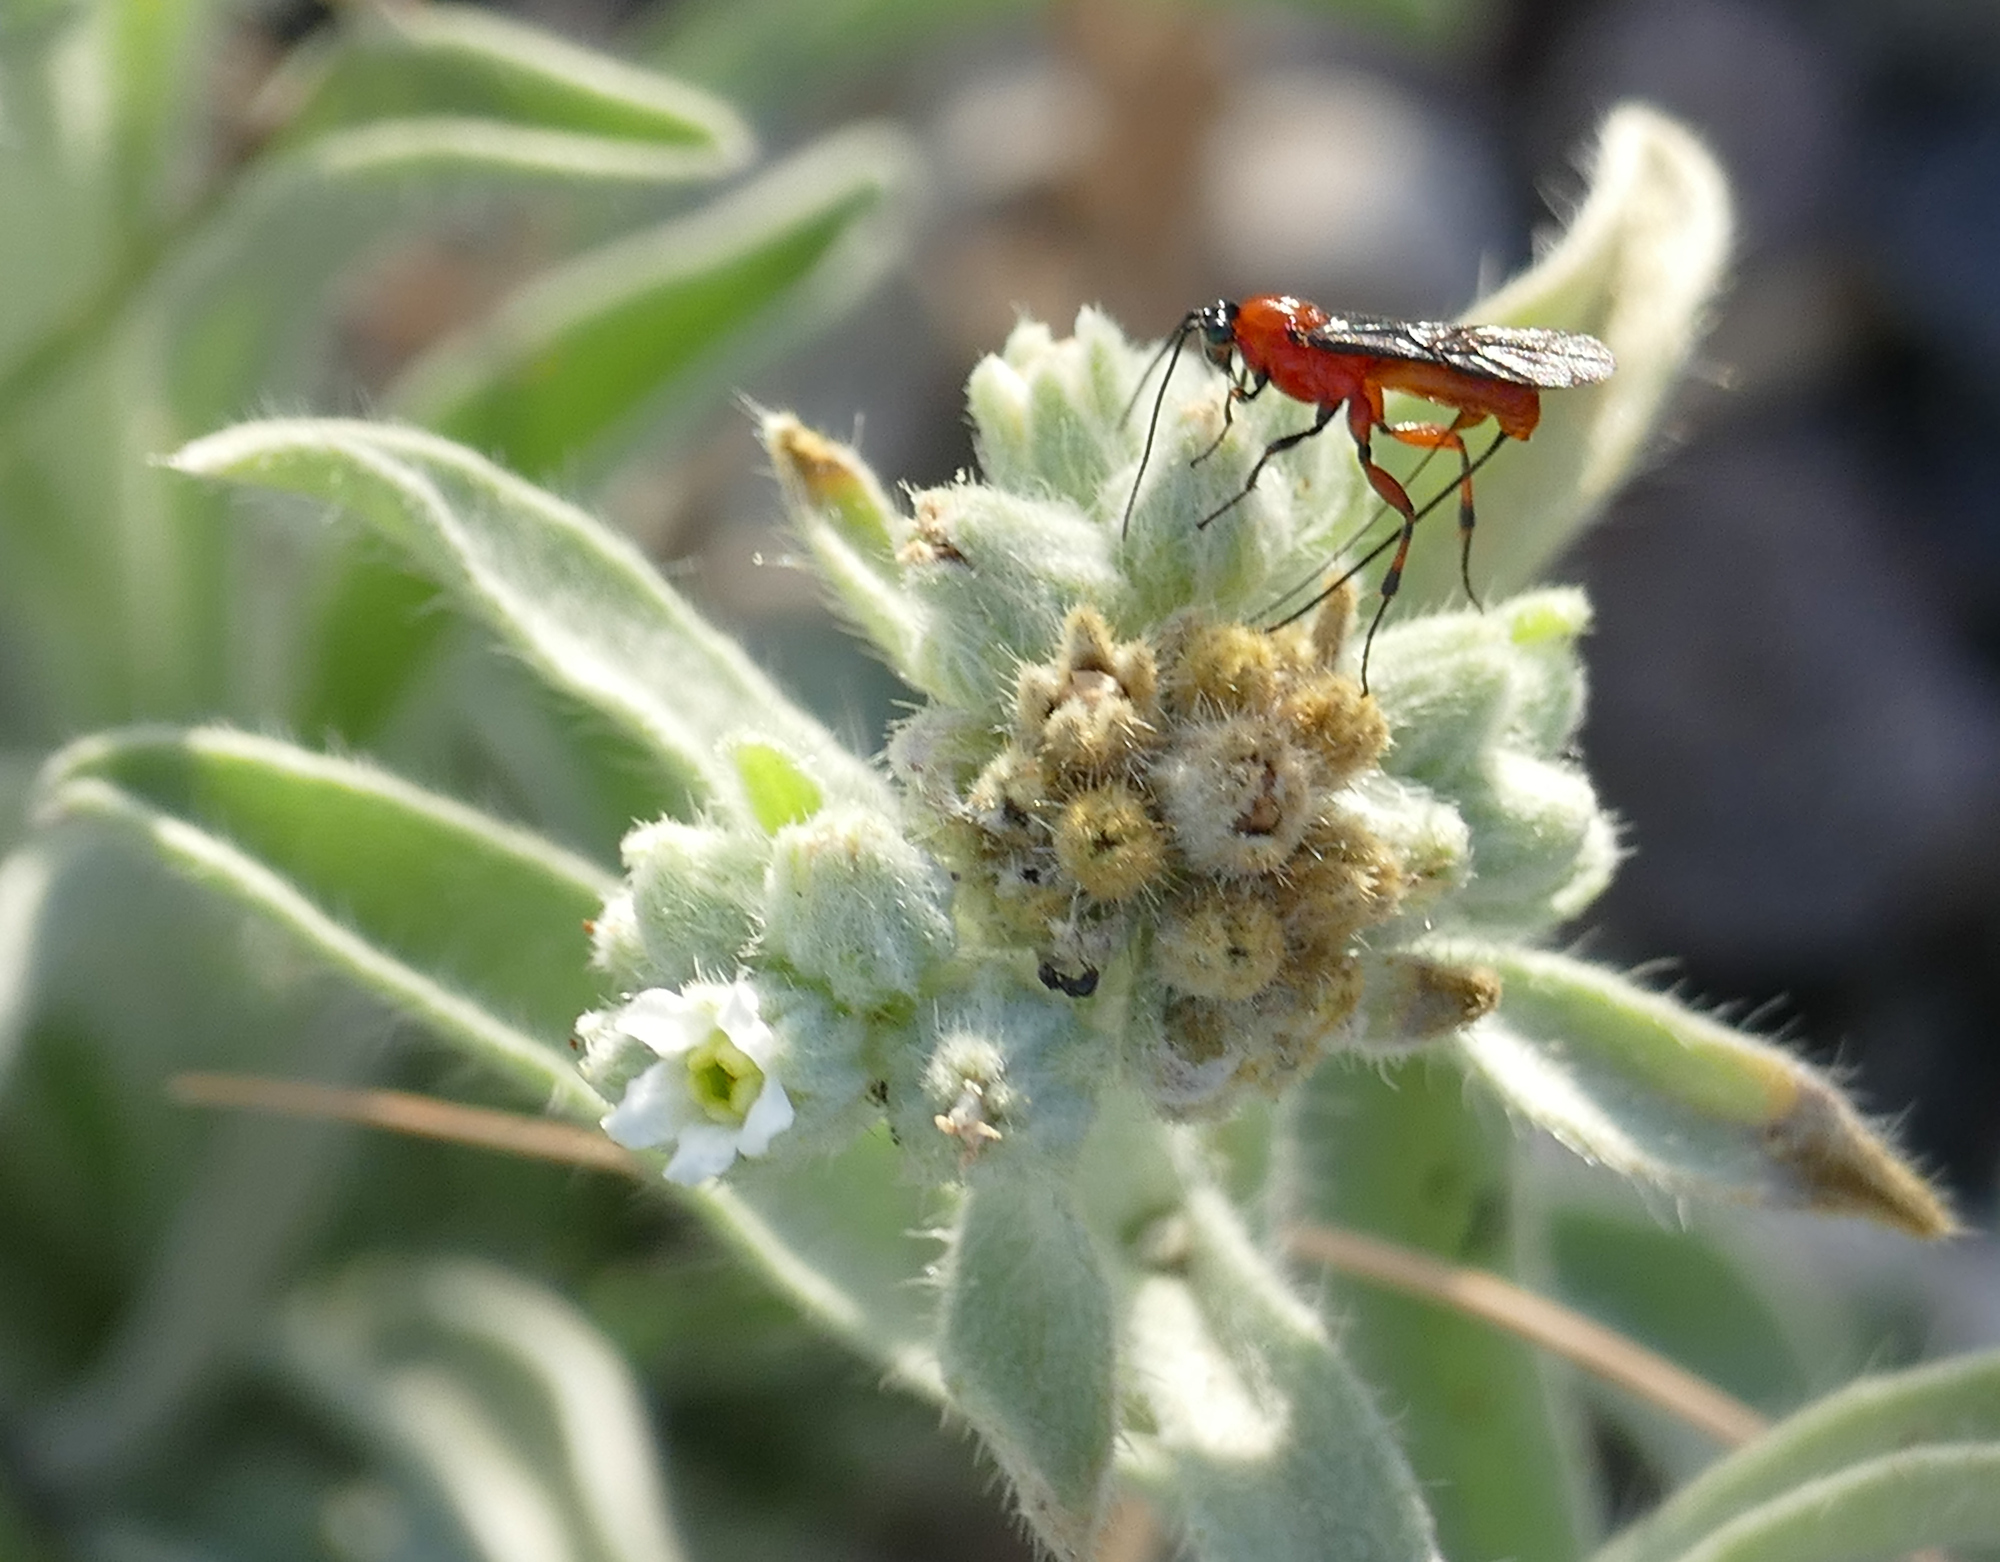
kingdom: Animalia
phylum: Arthropoda
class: Insecta
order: Hymenoptera
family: Braconidae
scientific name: Braconidae
